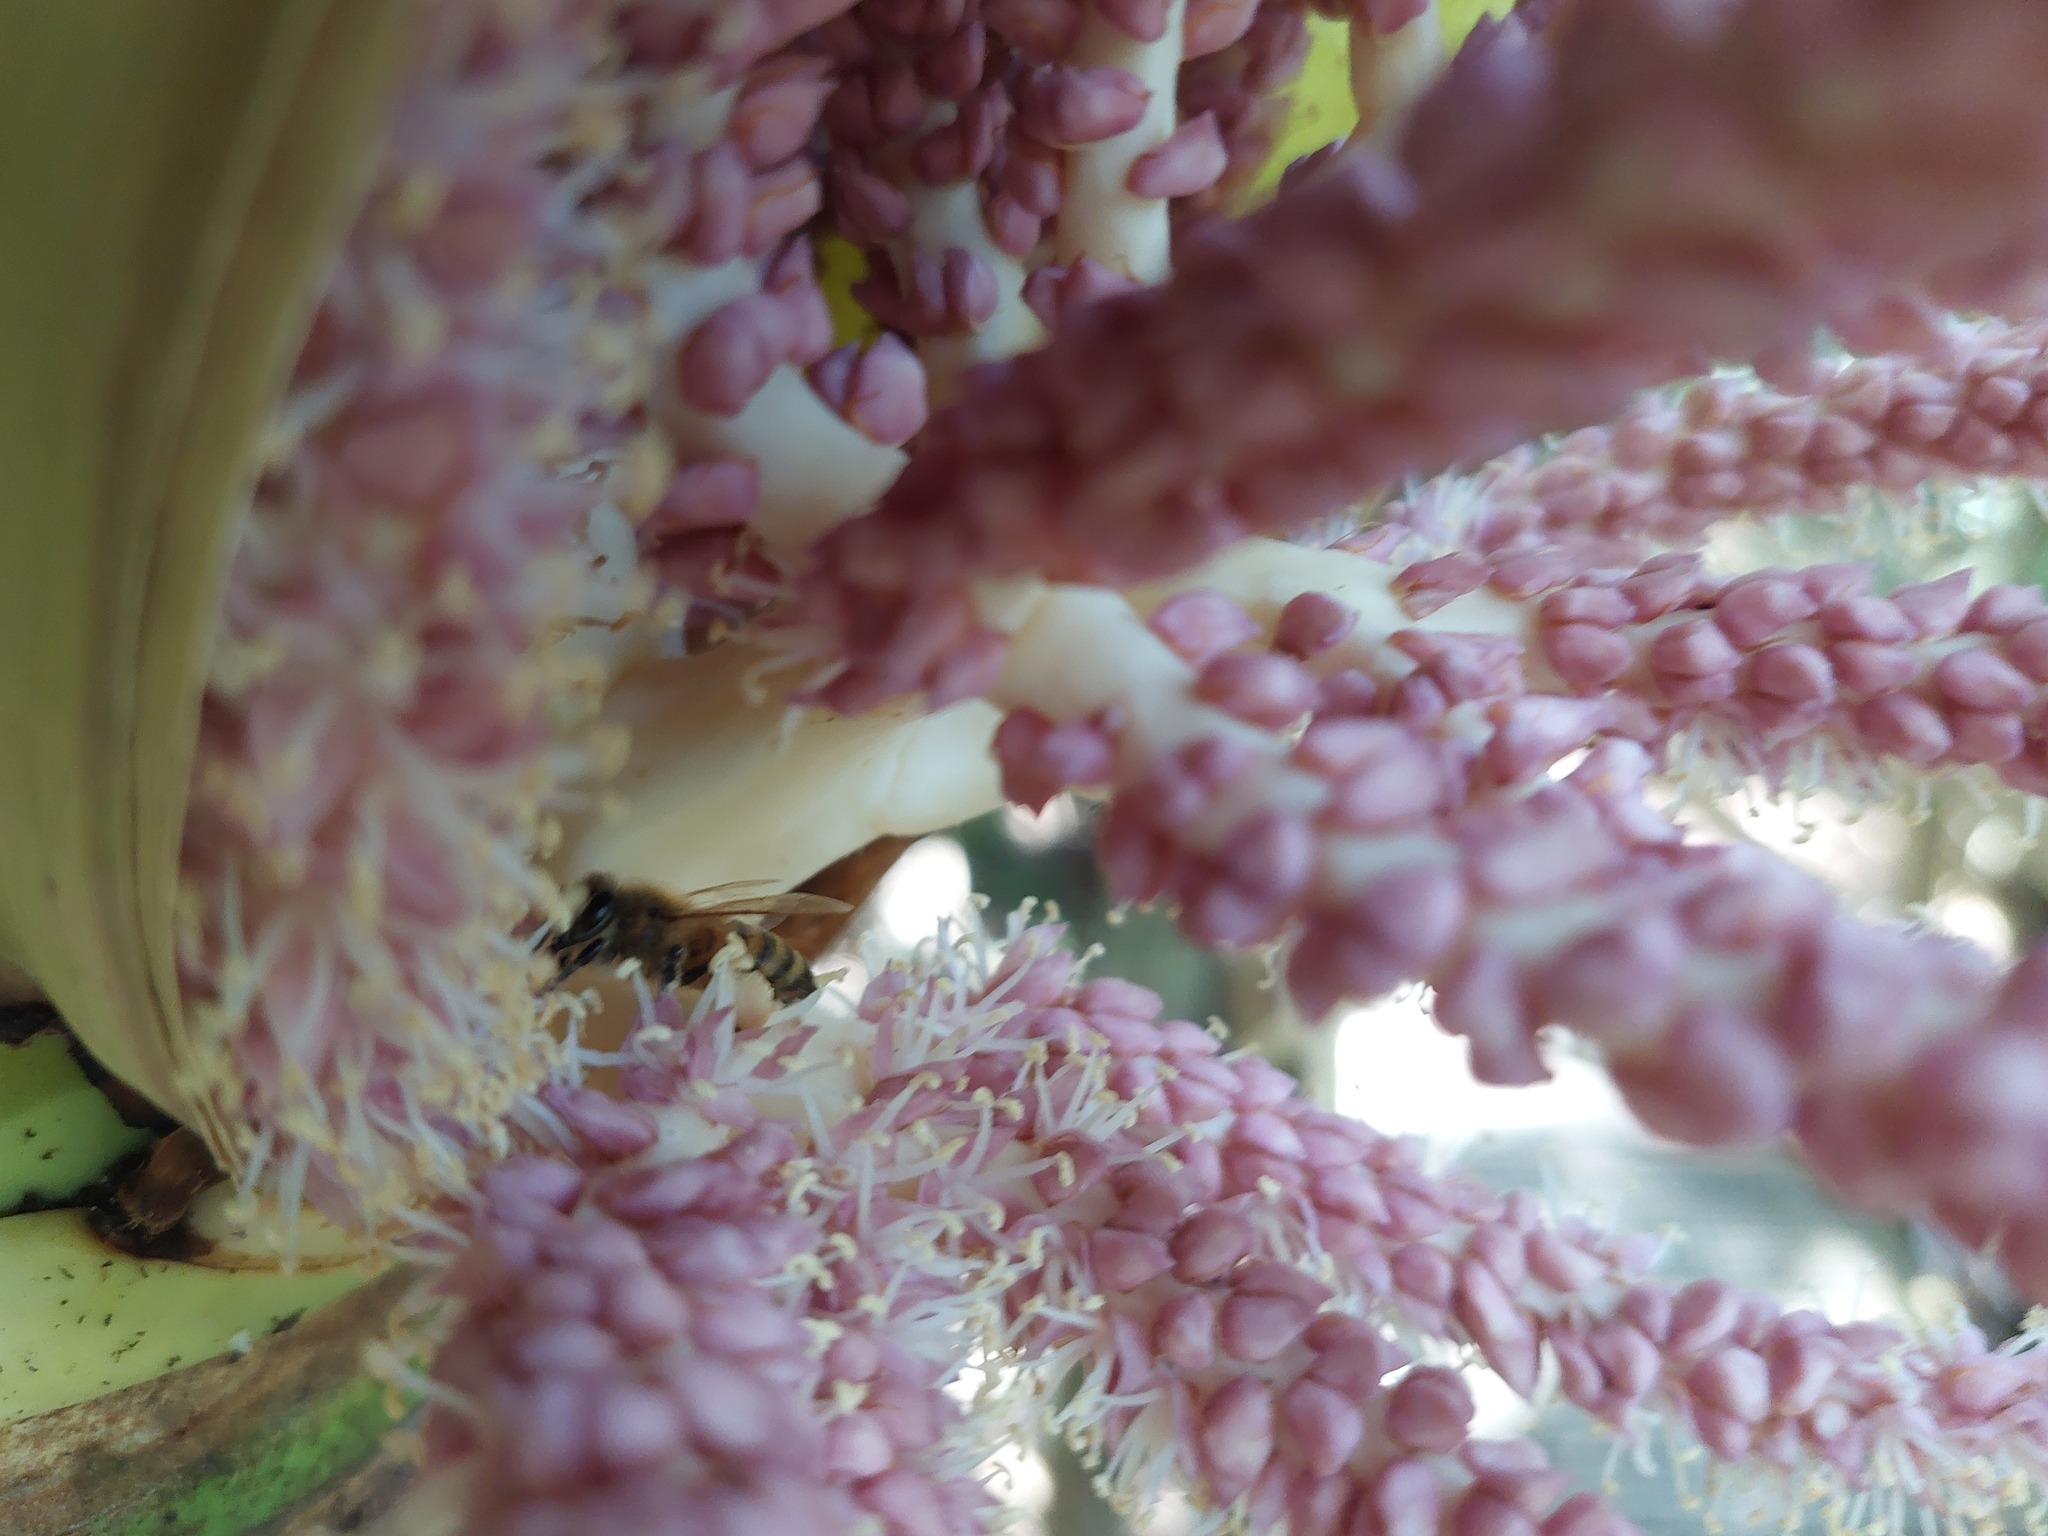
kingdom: Animalia
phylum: Arthropoda
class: Insecta
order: Hymenoptera
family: Apidae
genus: Apis
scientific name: Apis mellifera
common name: Honey bee
